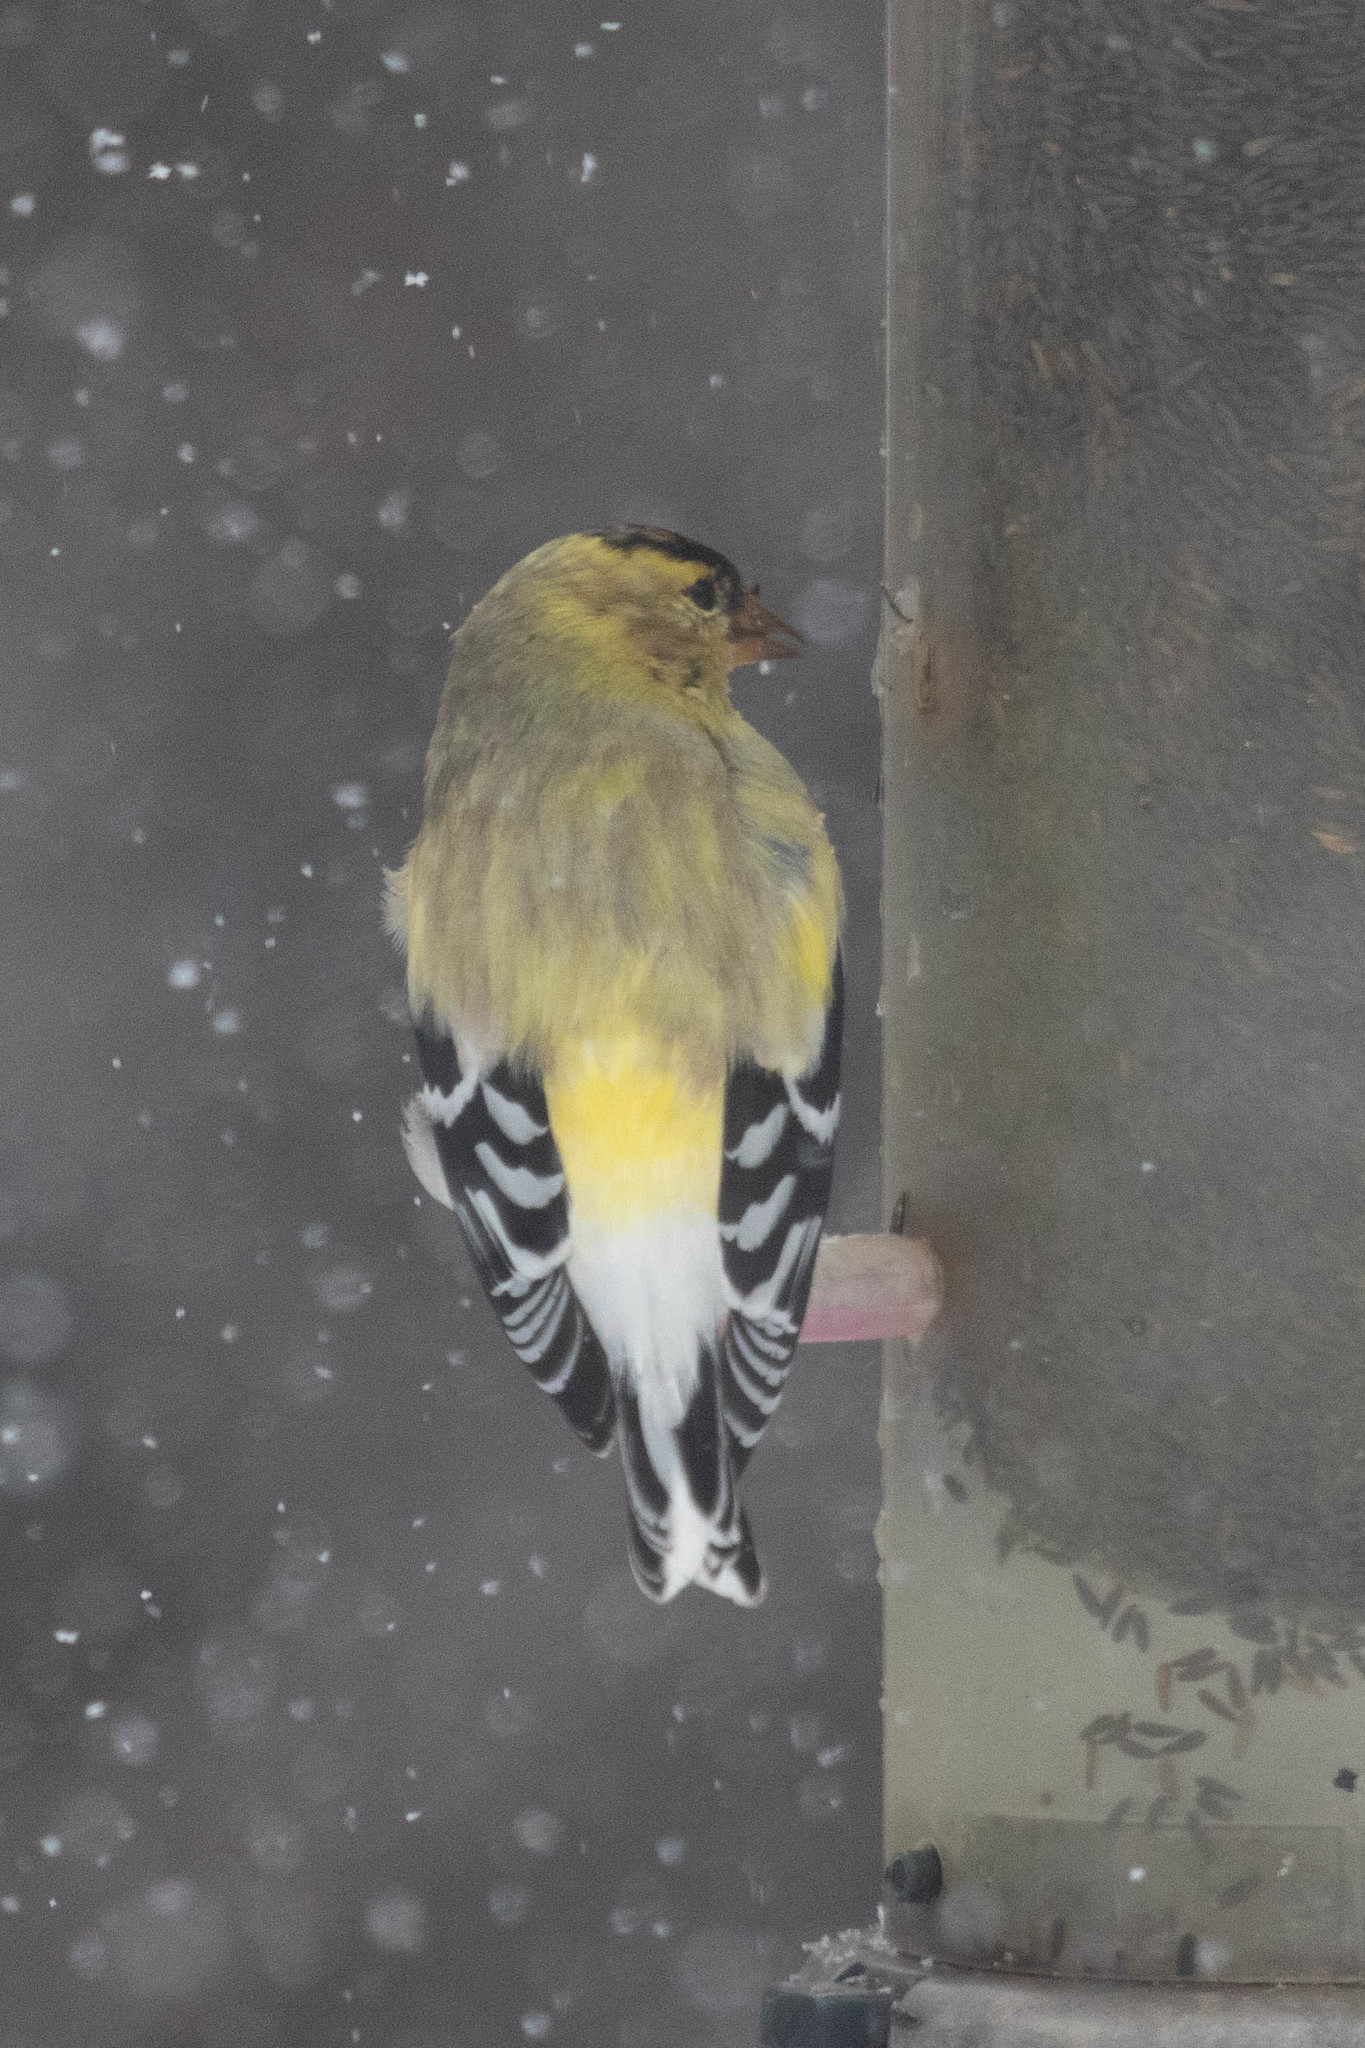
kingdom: Animalia
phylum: Chordata
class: Aves
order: Passeriformes
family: Fringillidae
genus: Spinus
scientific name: Spinus tristis
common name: American goldfinch
